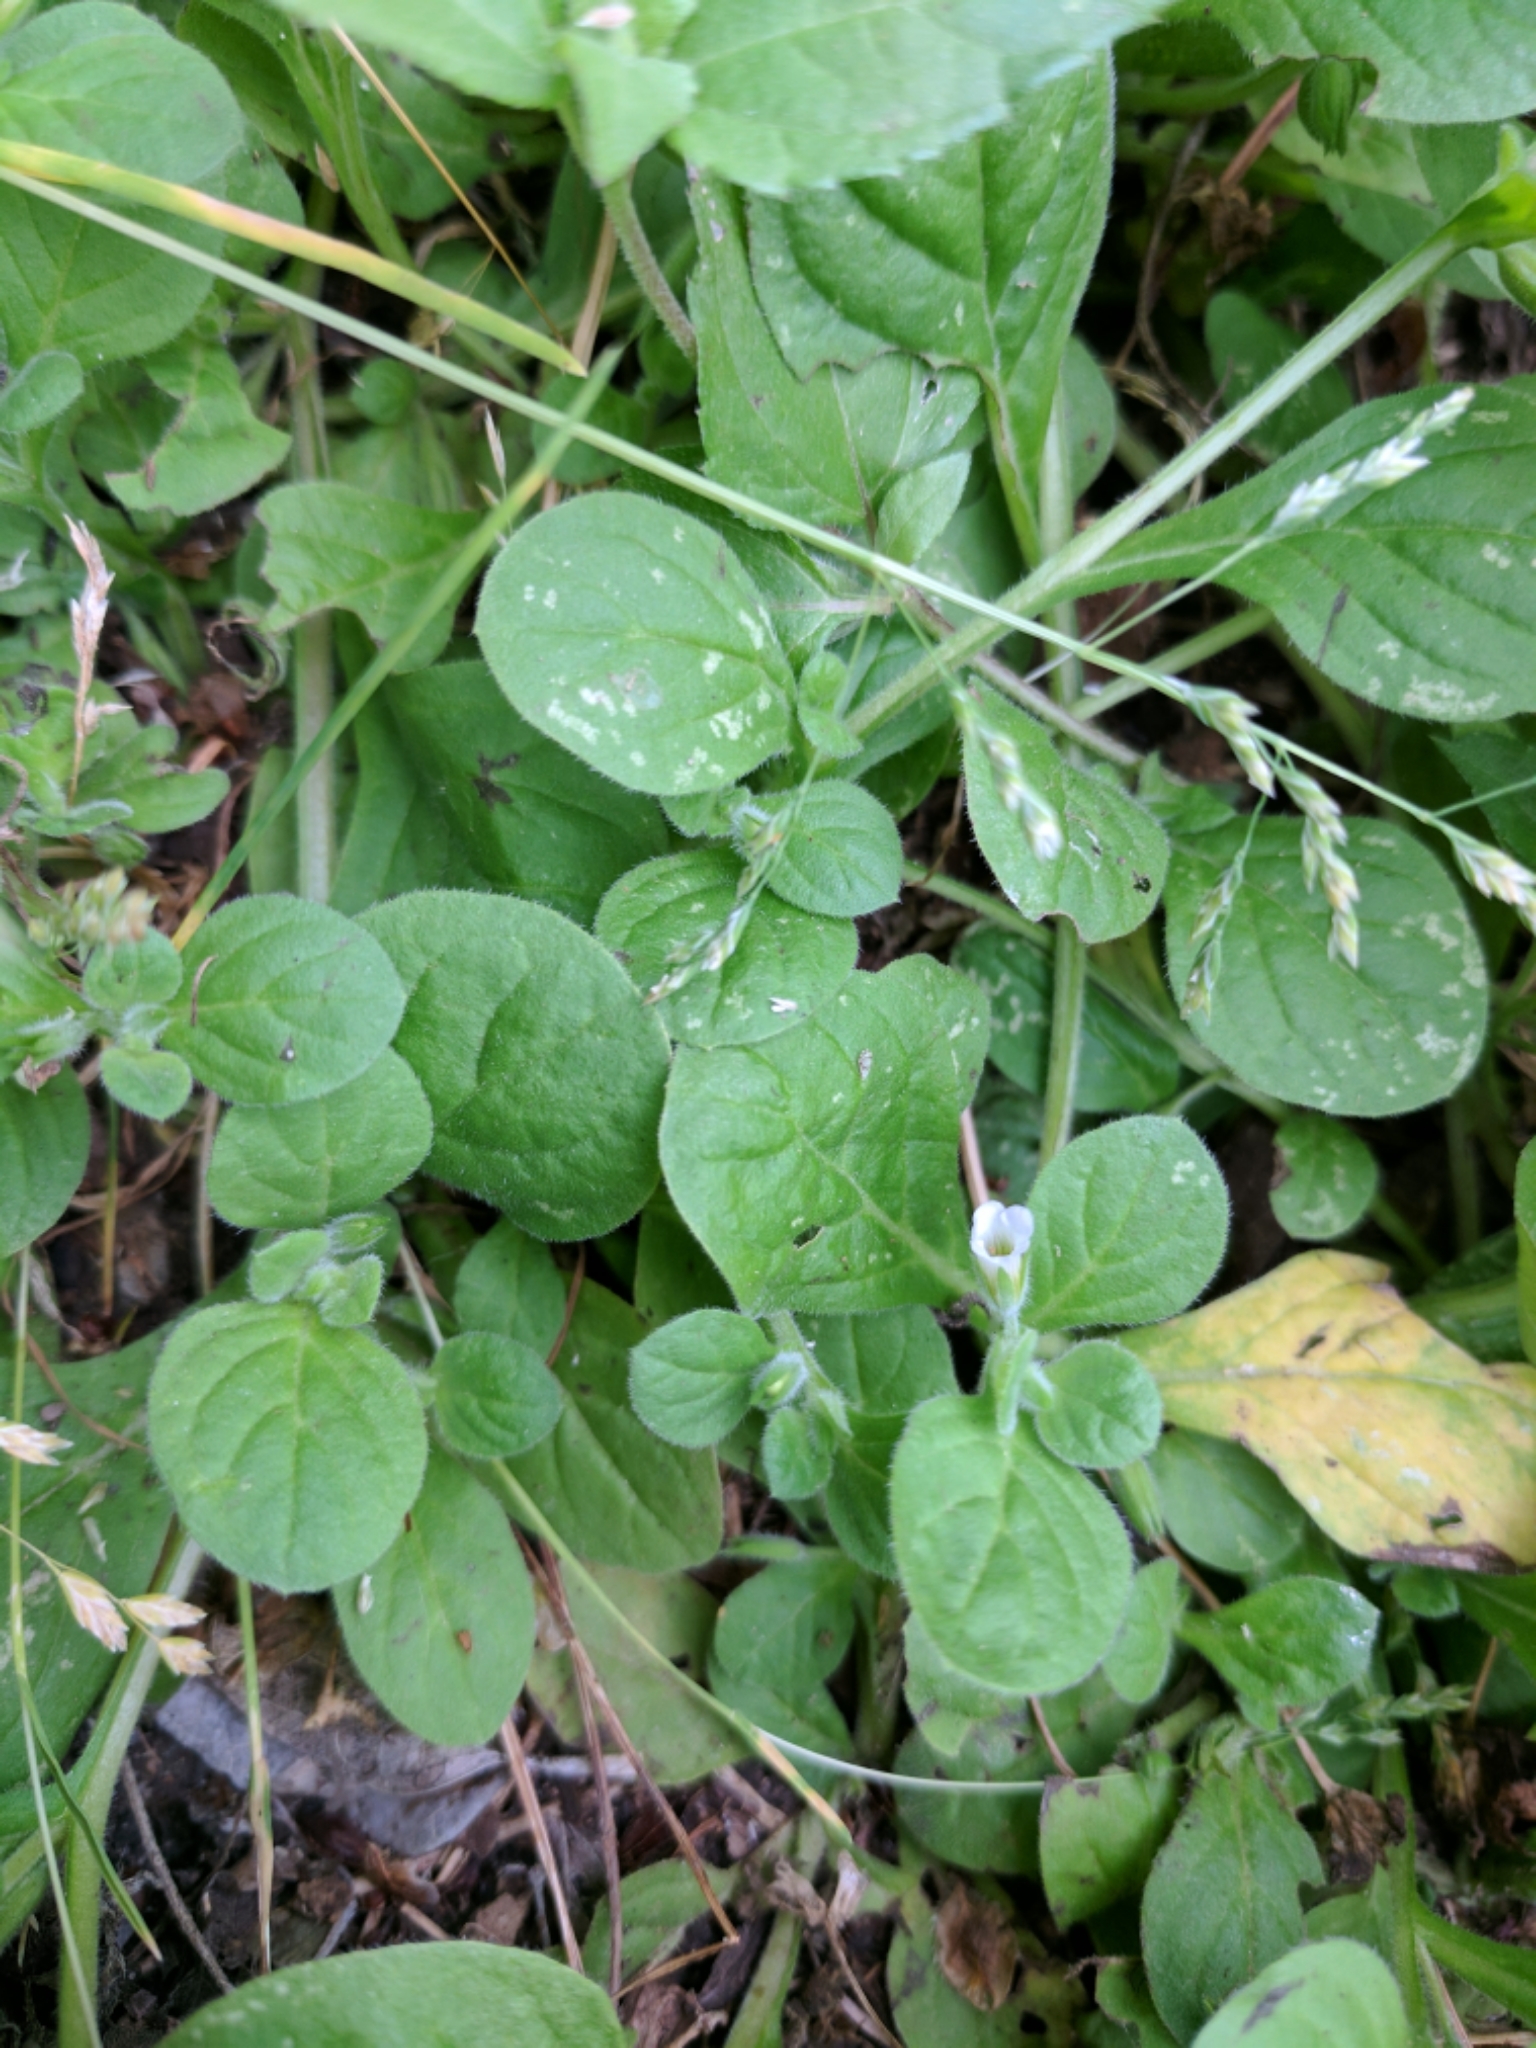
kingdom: Plantae
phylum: Tracheophyta
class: Magnoliopsida
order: Boraginales
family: Namaceae
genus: Nama
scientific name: Nama jamaicensis
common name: Jamaicanweed
